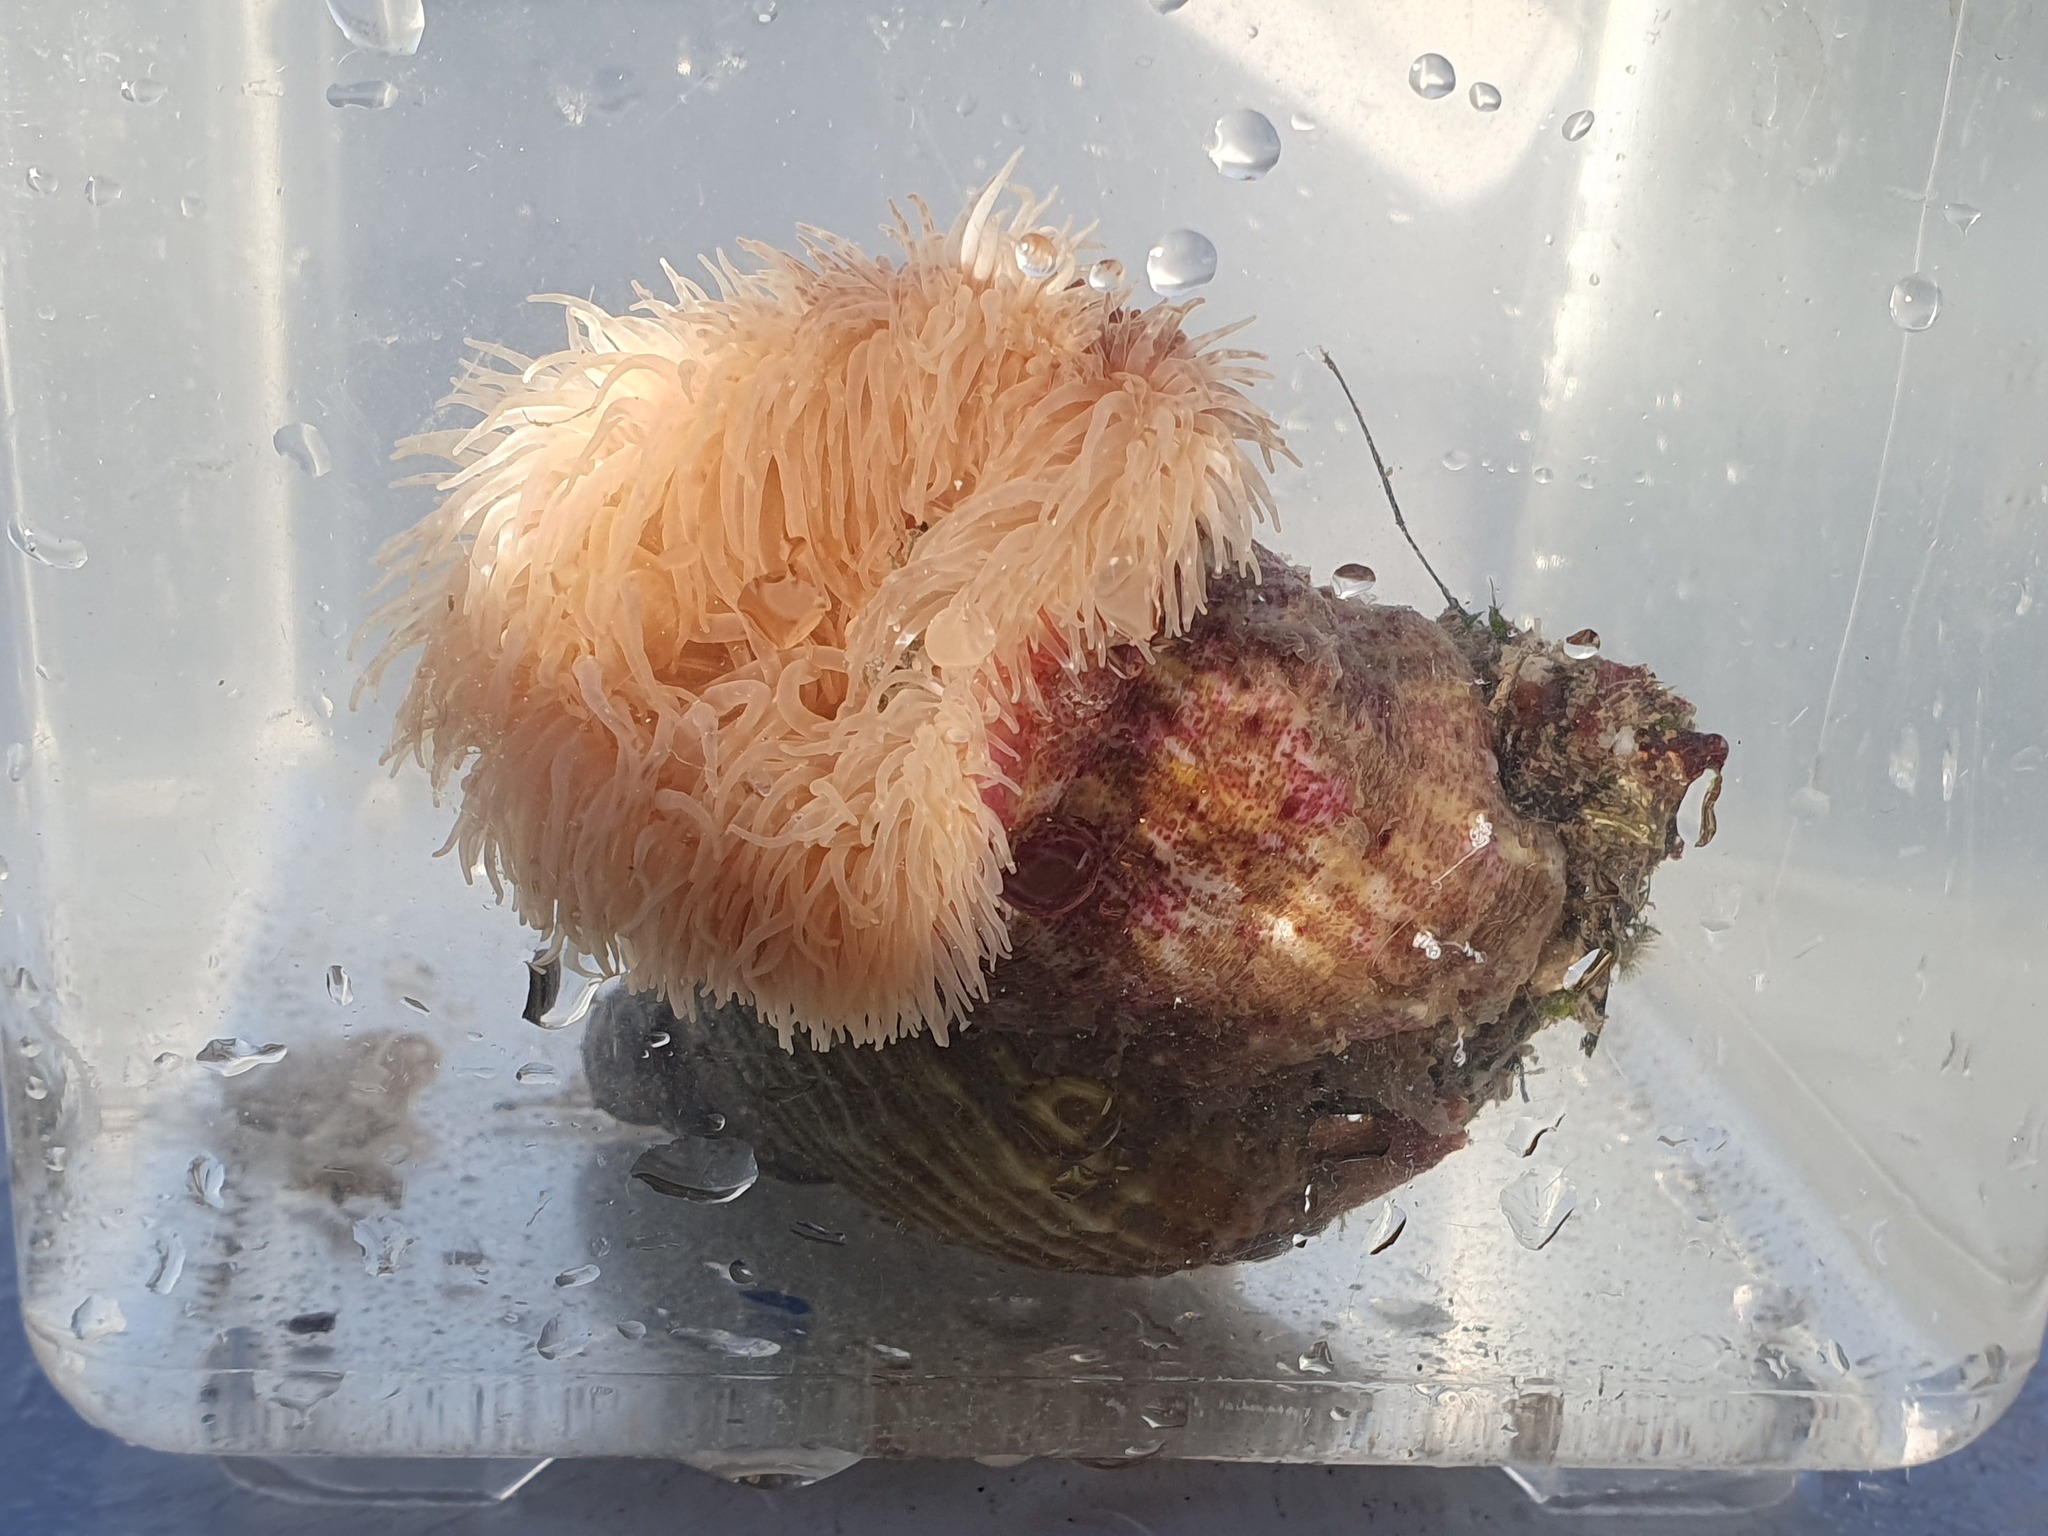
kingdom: Animalia
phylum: Cnidaria
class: Anthozoa
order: Actiniaria
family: Hormathiidae
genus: Calliactis
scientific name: Calliactis parasitica
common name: Parasitic anemone
